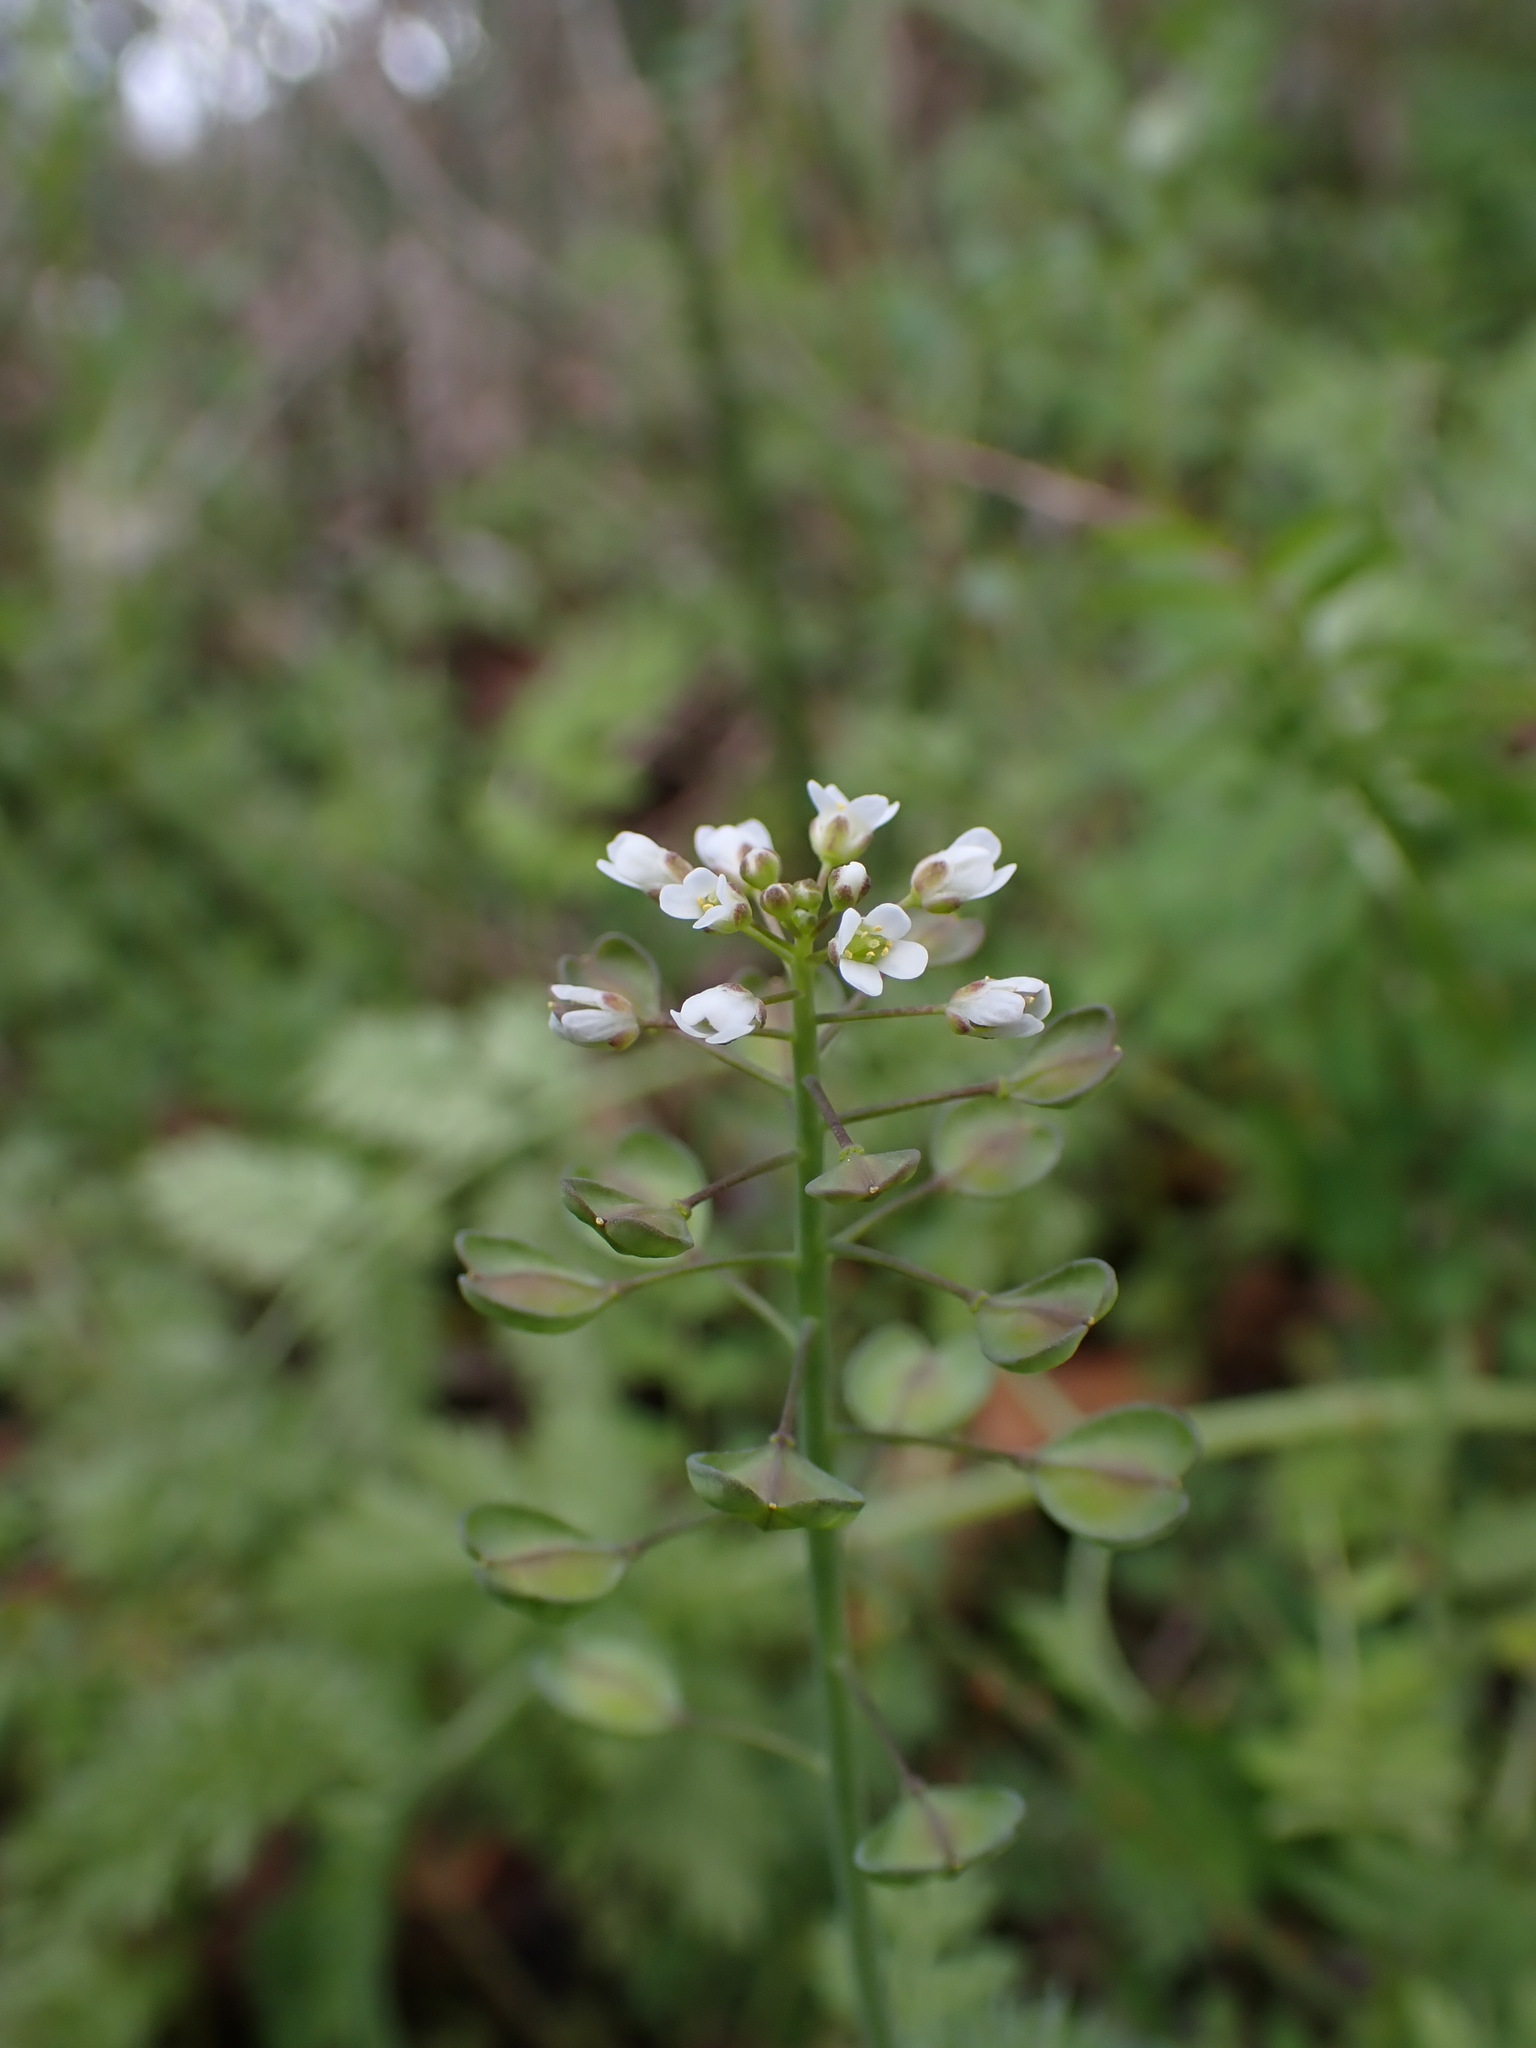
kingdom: Plantae
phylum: Tracheophyta
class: Magnoliopsida
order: Brassicales
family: Brassicaceae
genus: Noccaea
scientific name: Noccaea perfoliata
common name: Perfoliate pennycress
